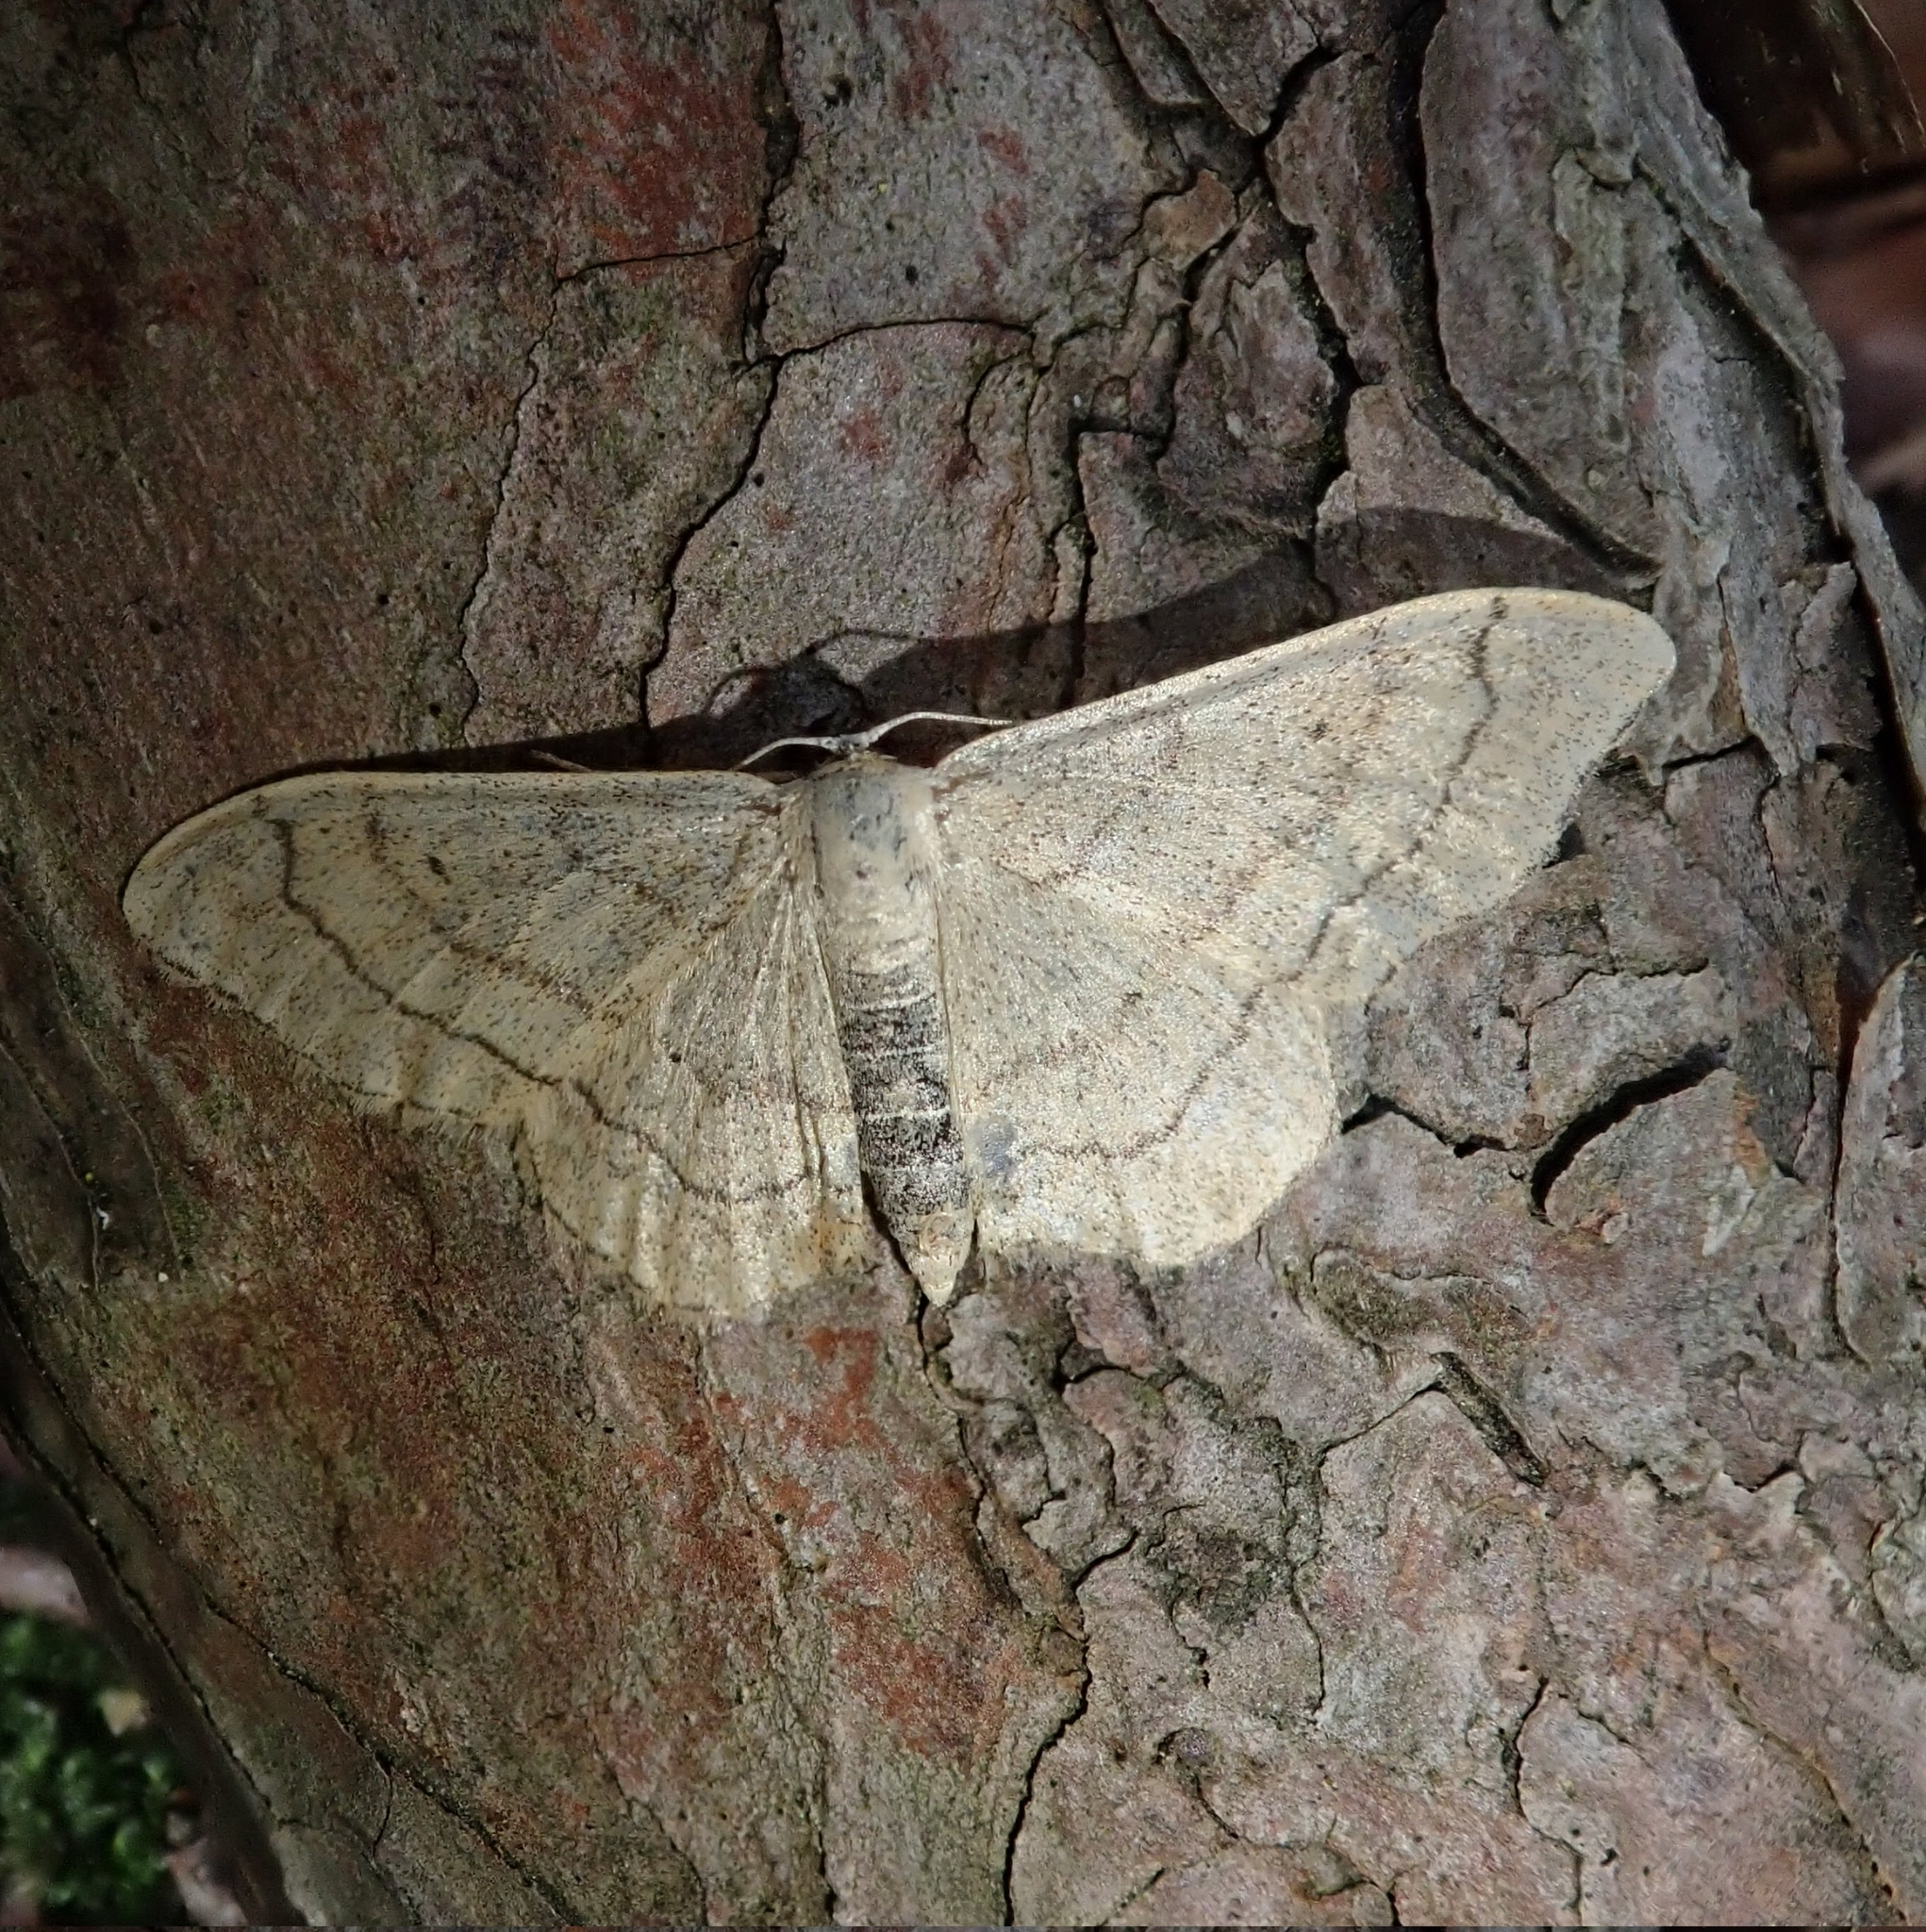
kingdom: Animalia
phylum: Arthropoda
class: Insecta
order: Lepidoptera
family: Geometridae
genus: Idaea
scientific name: Idaea aversata
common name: Riband wave
